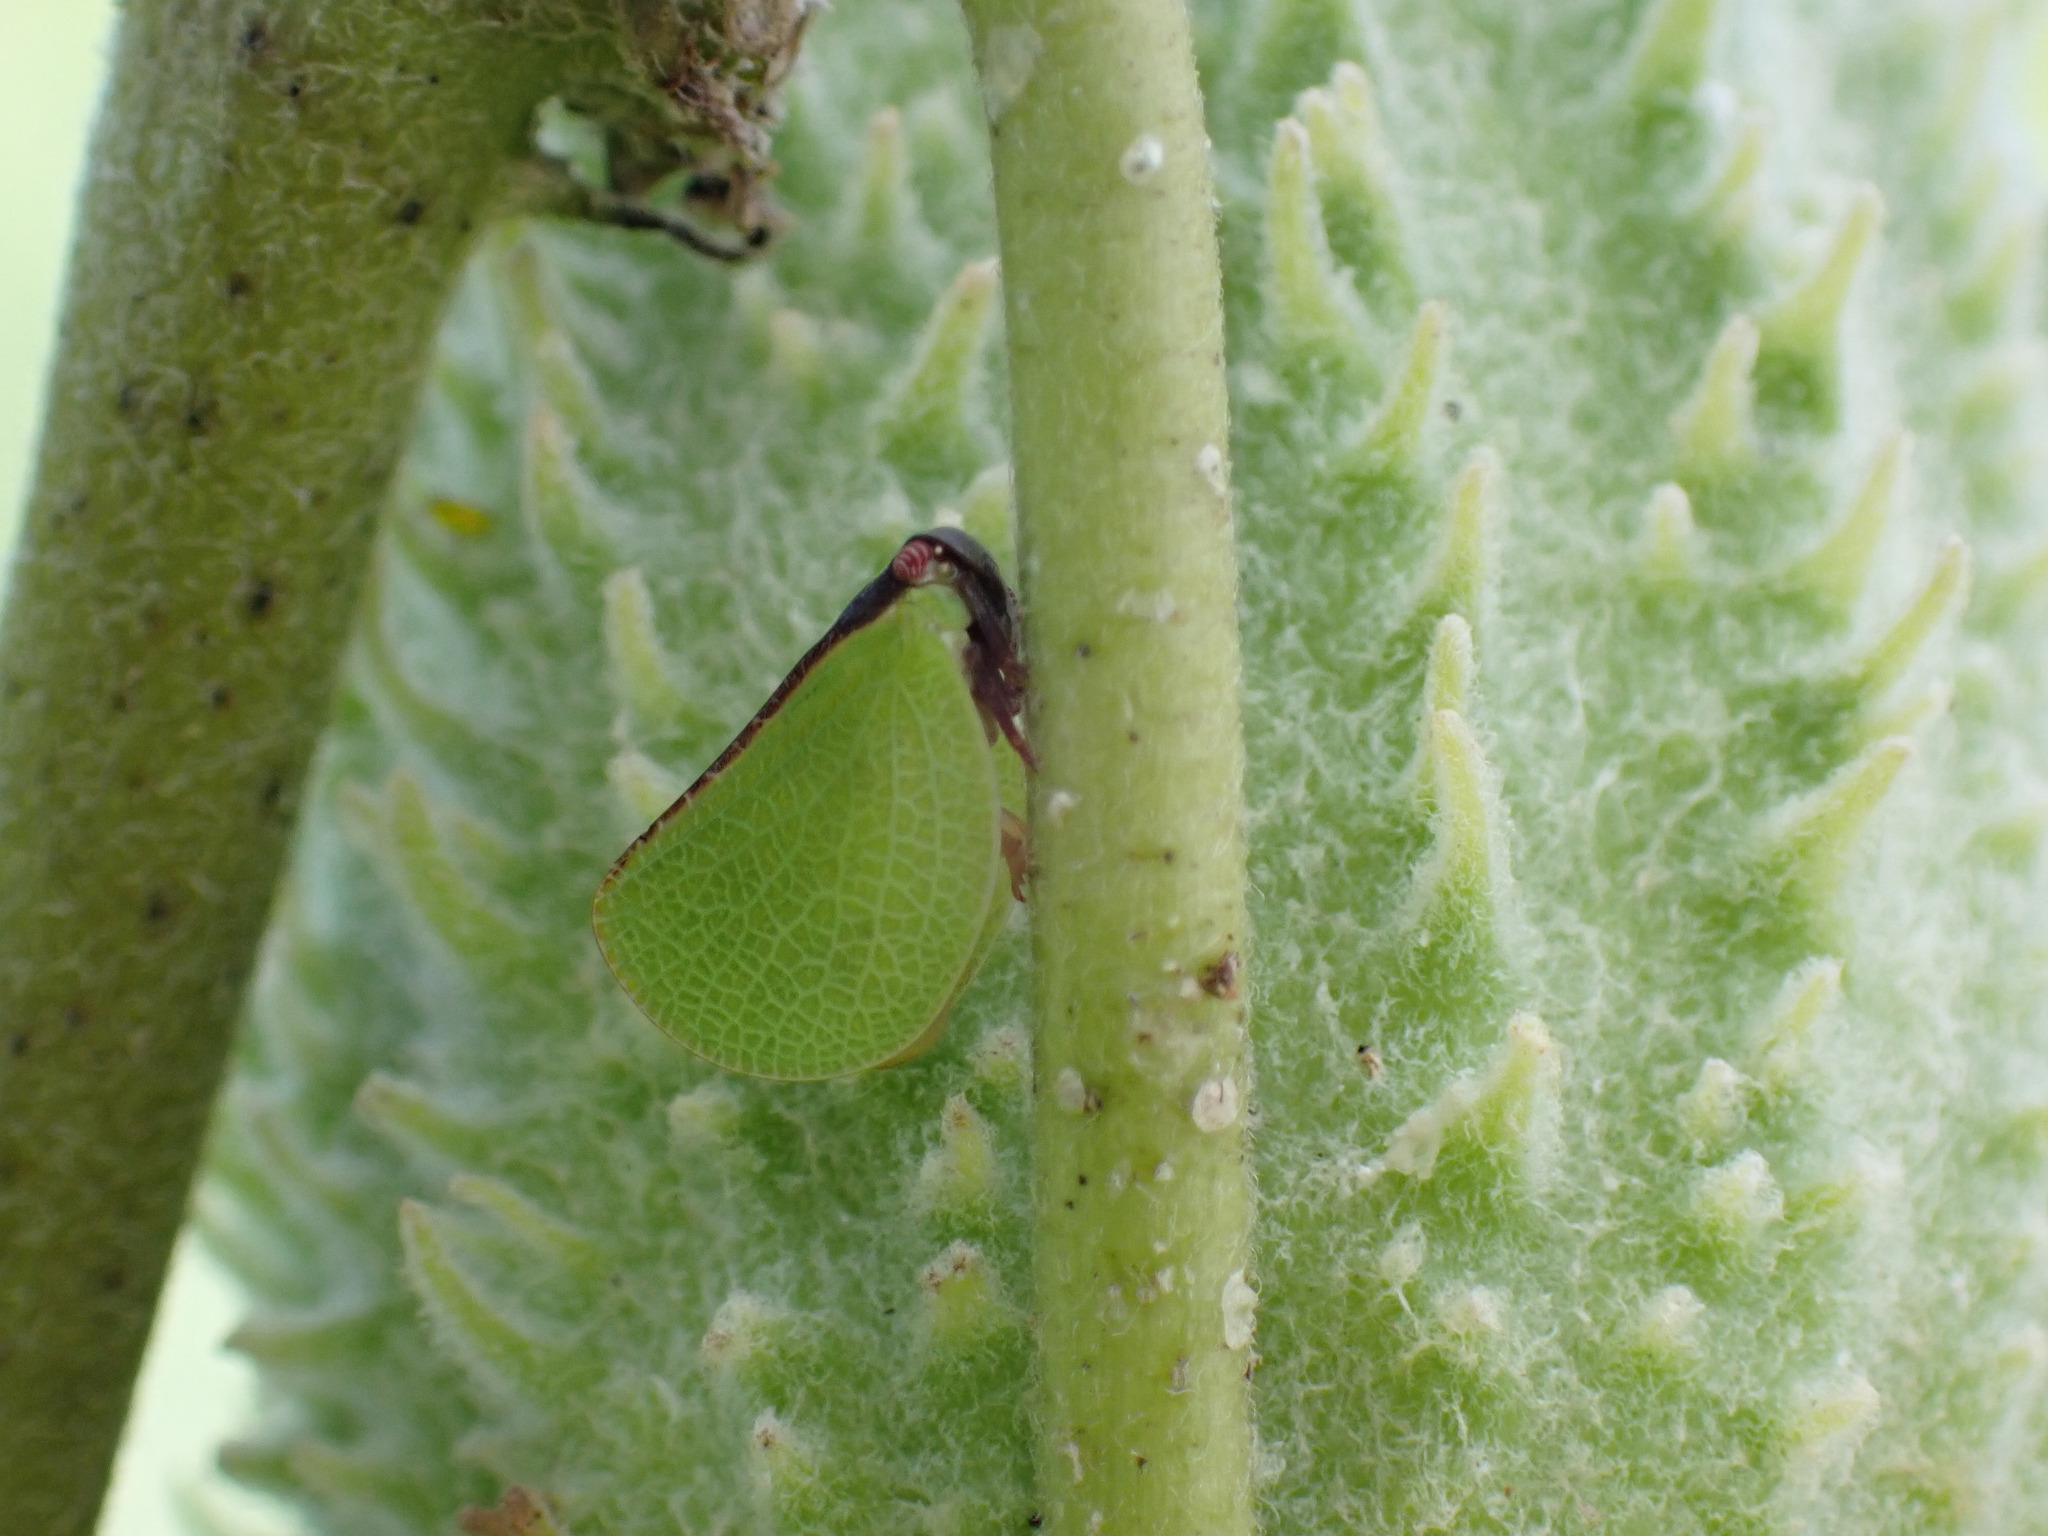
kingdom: Animalia
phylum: Arthropoda
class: Insecta
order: Hemiptera
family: Acanaloniidae
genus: Acanalonia
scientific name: Acanalonia bivittata
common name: Two-striped planthopper
